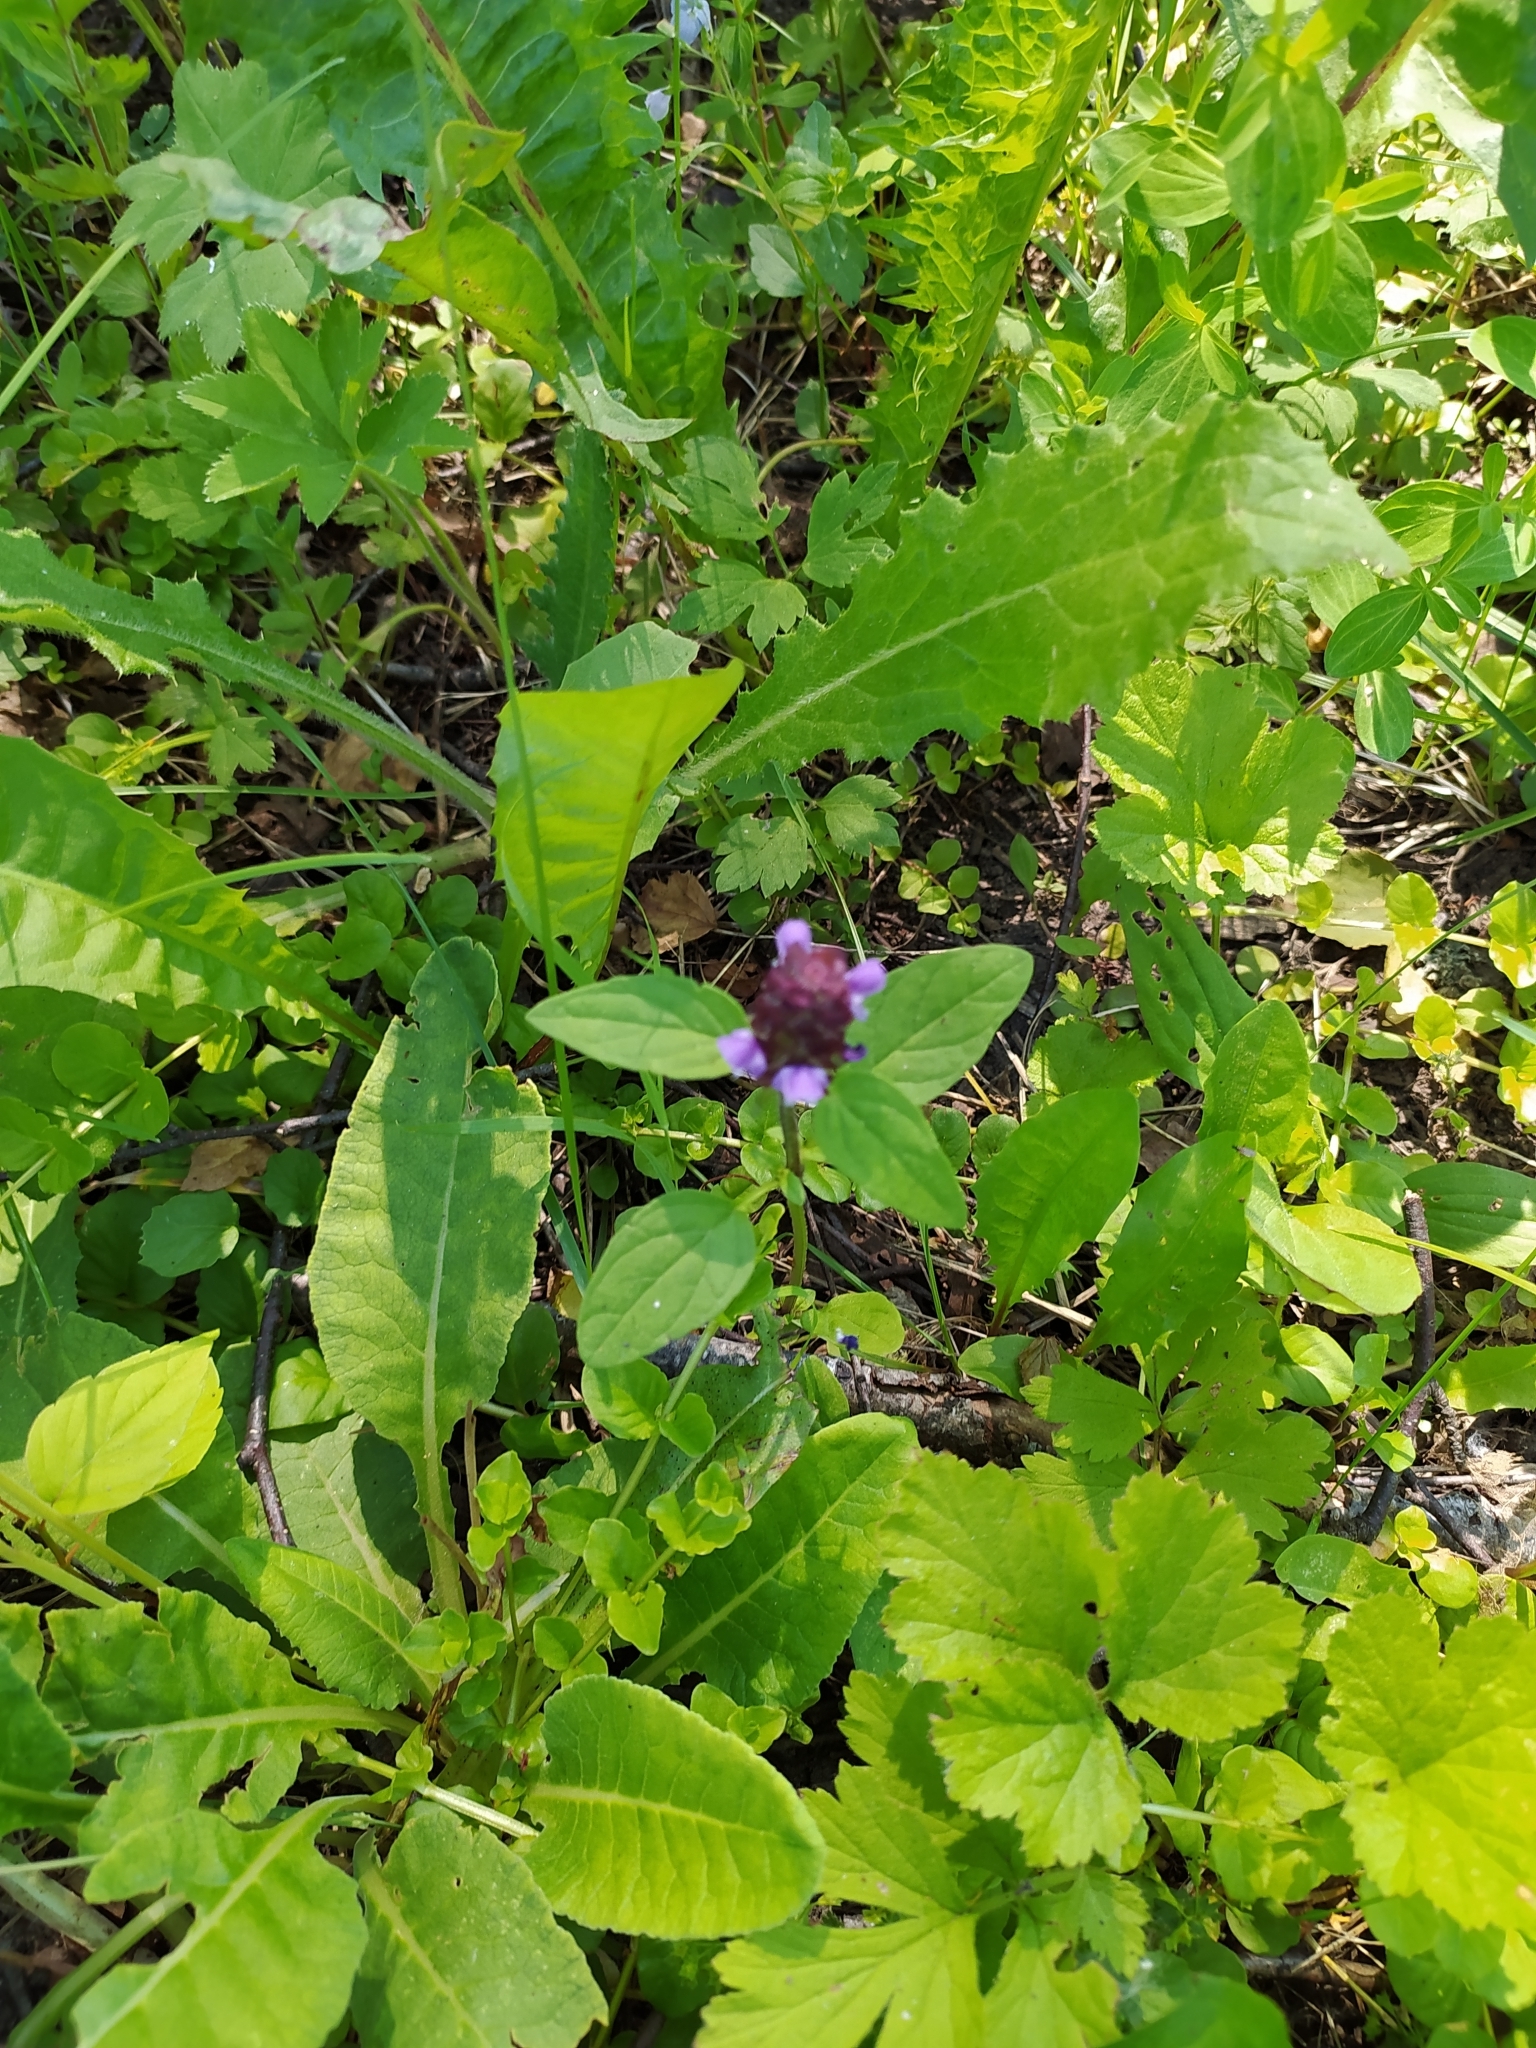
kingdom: Plantae
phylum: Tracheophyta
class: Magnoliopsida
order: Lamiales
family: Lamiaceae
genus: Prunella
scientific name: Prunella vulgaris
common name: Heal-all
